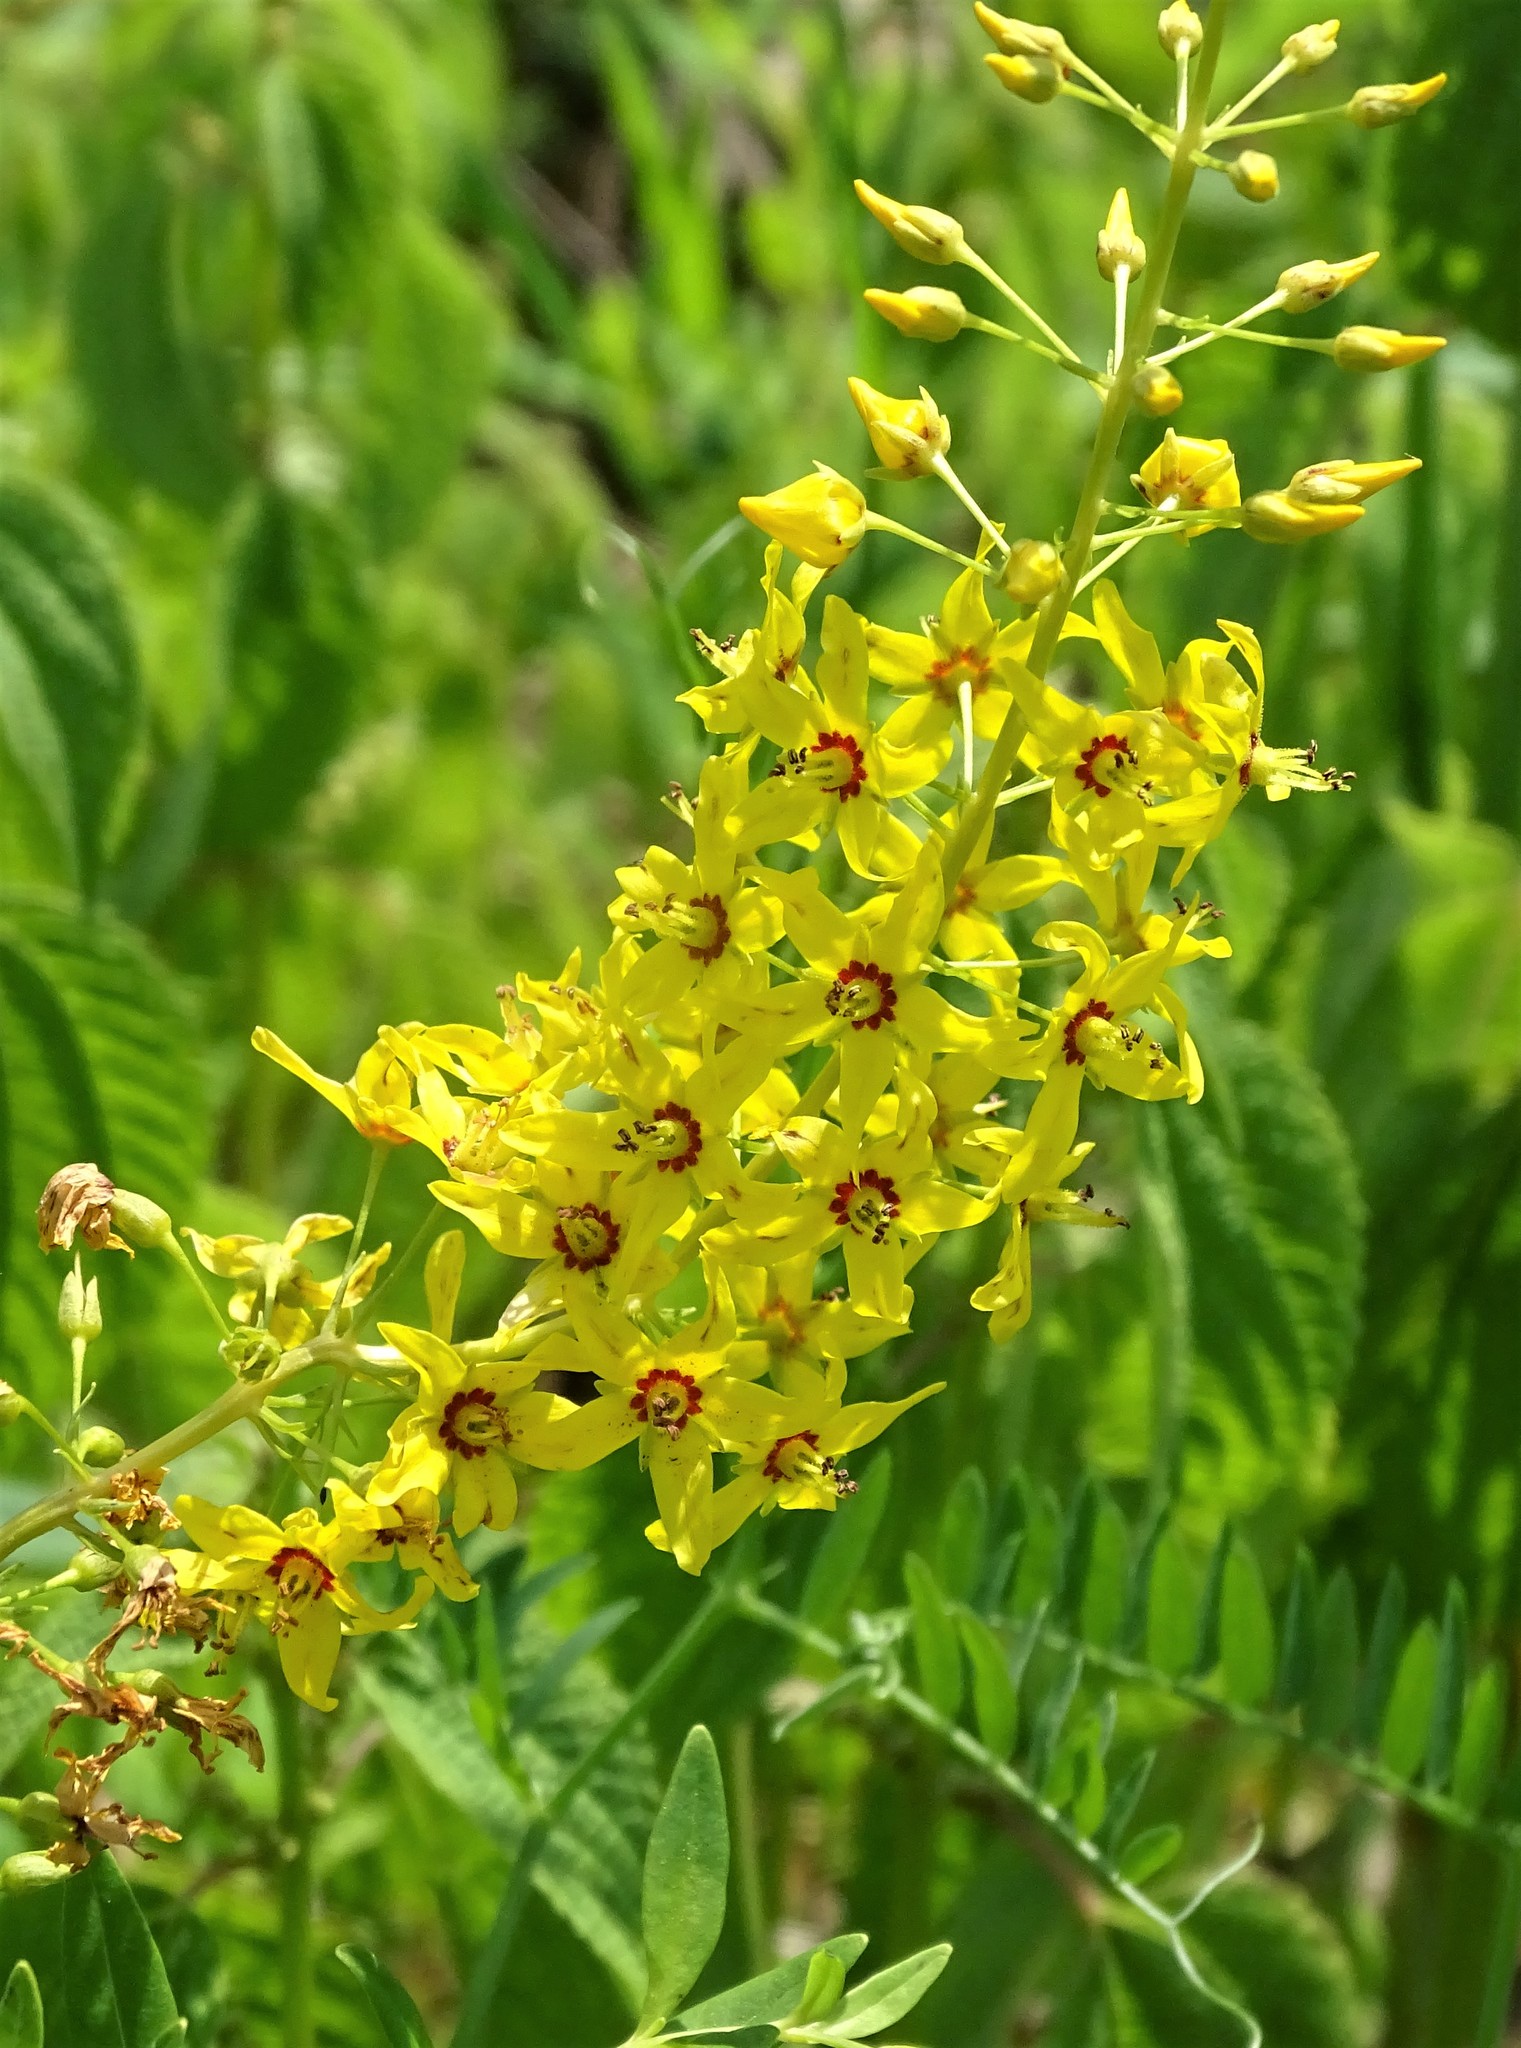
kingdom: Plantae
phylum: Tracheophyta
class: Magnoliopsida
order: Ericales
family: Primulaceae
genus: Lysimachia
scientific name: Lysimachia terrestris
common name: Lake loosestrife
